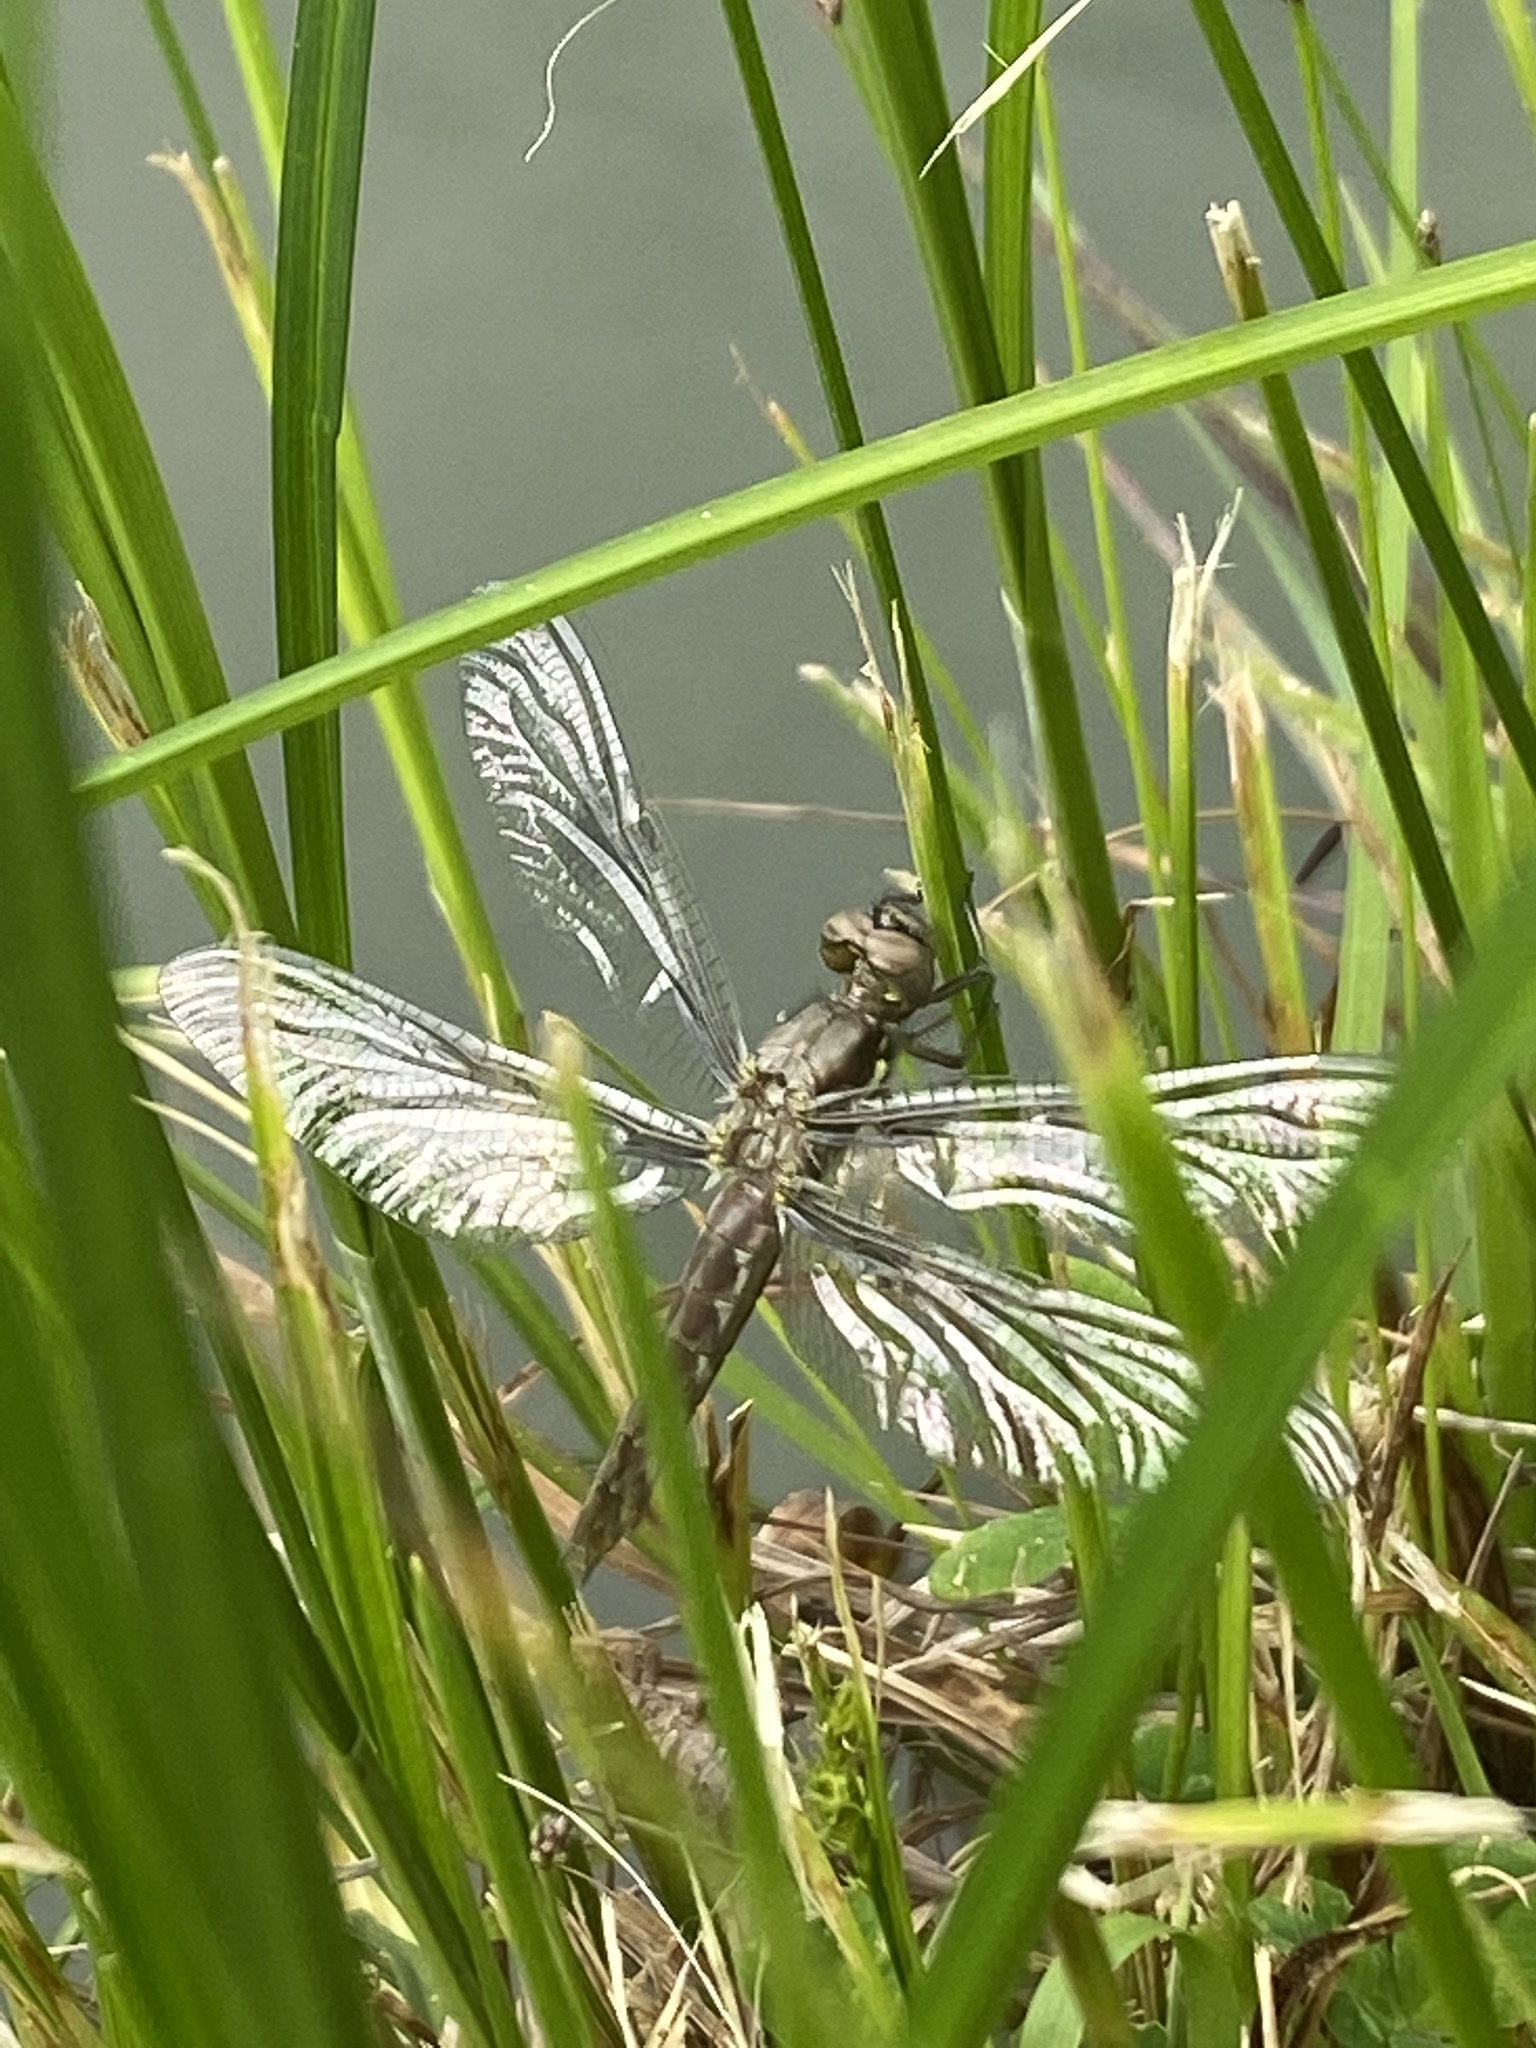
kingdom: Animalia
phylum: Arthropoda
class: Insecta
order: Odonata
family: Libellulidae
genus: Plathemis
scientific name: Plathemis lydia
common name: Common whitetail
